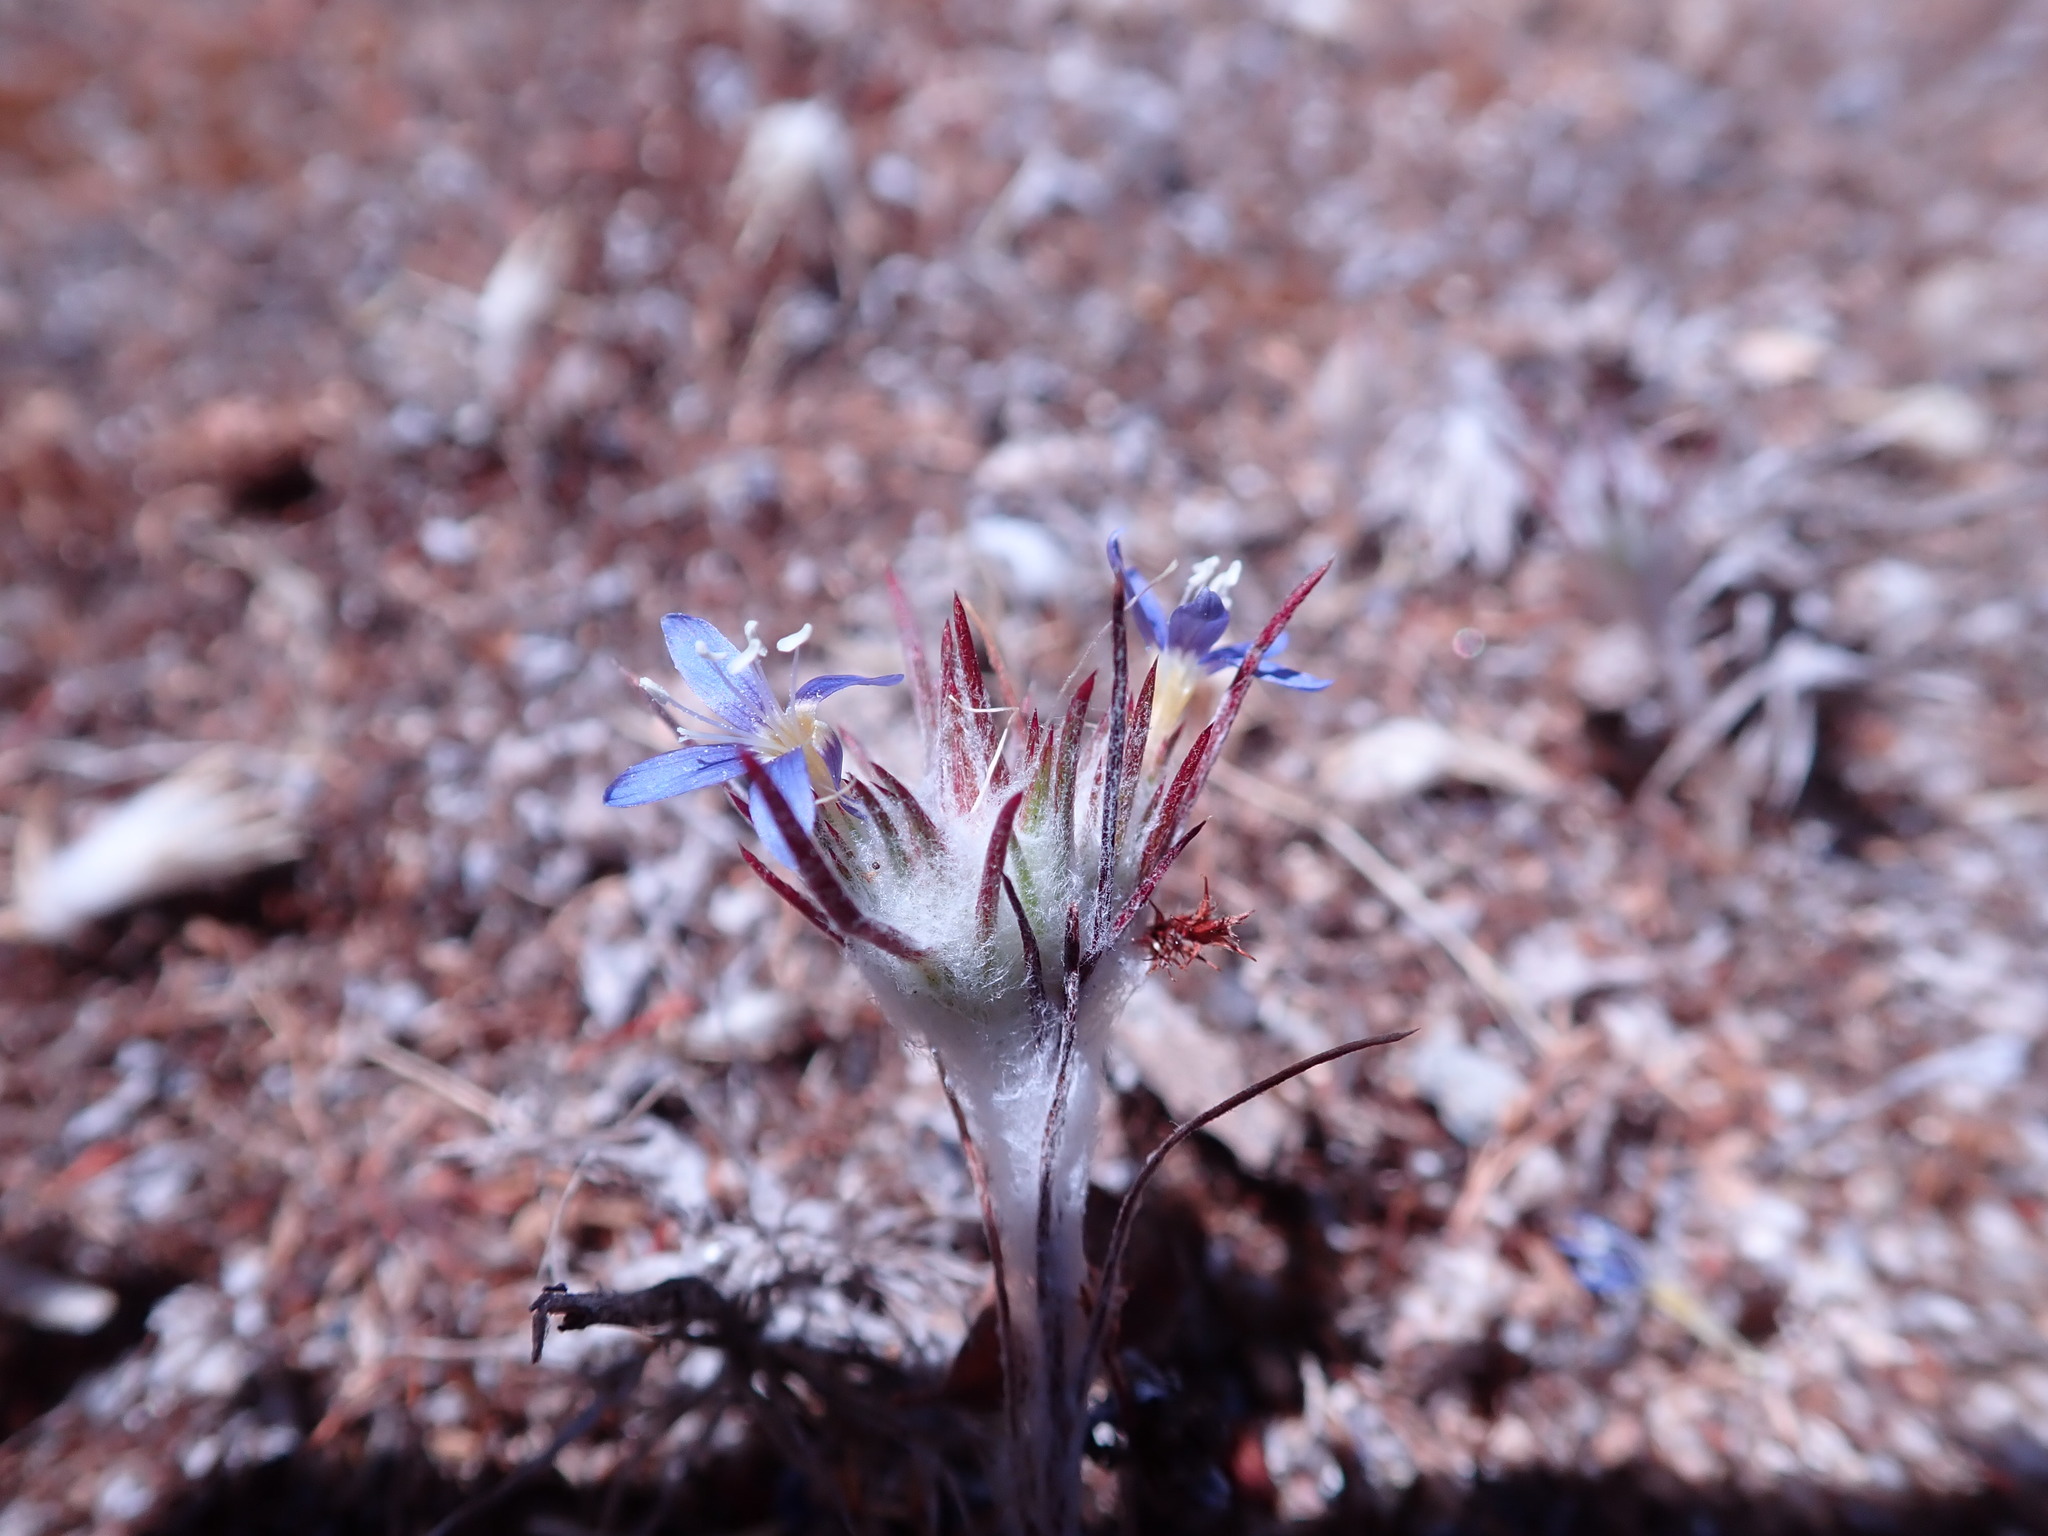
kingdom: Plantae
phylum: Tracheophyta
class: Magnoliopsida
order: Ericales
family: Polemoniaceae
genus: Eriastrum
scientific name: Eriastrum virgatum
